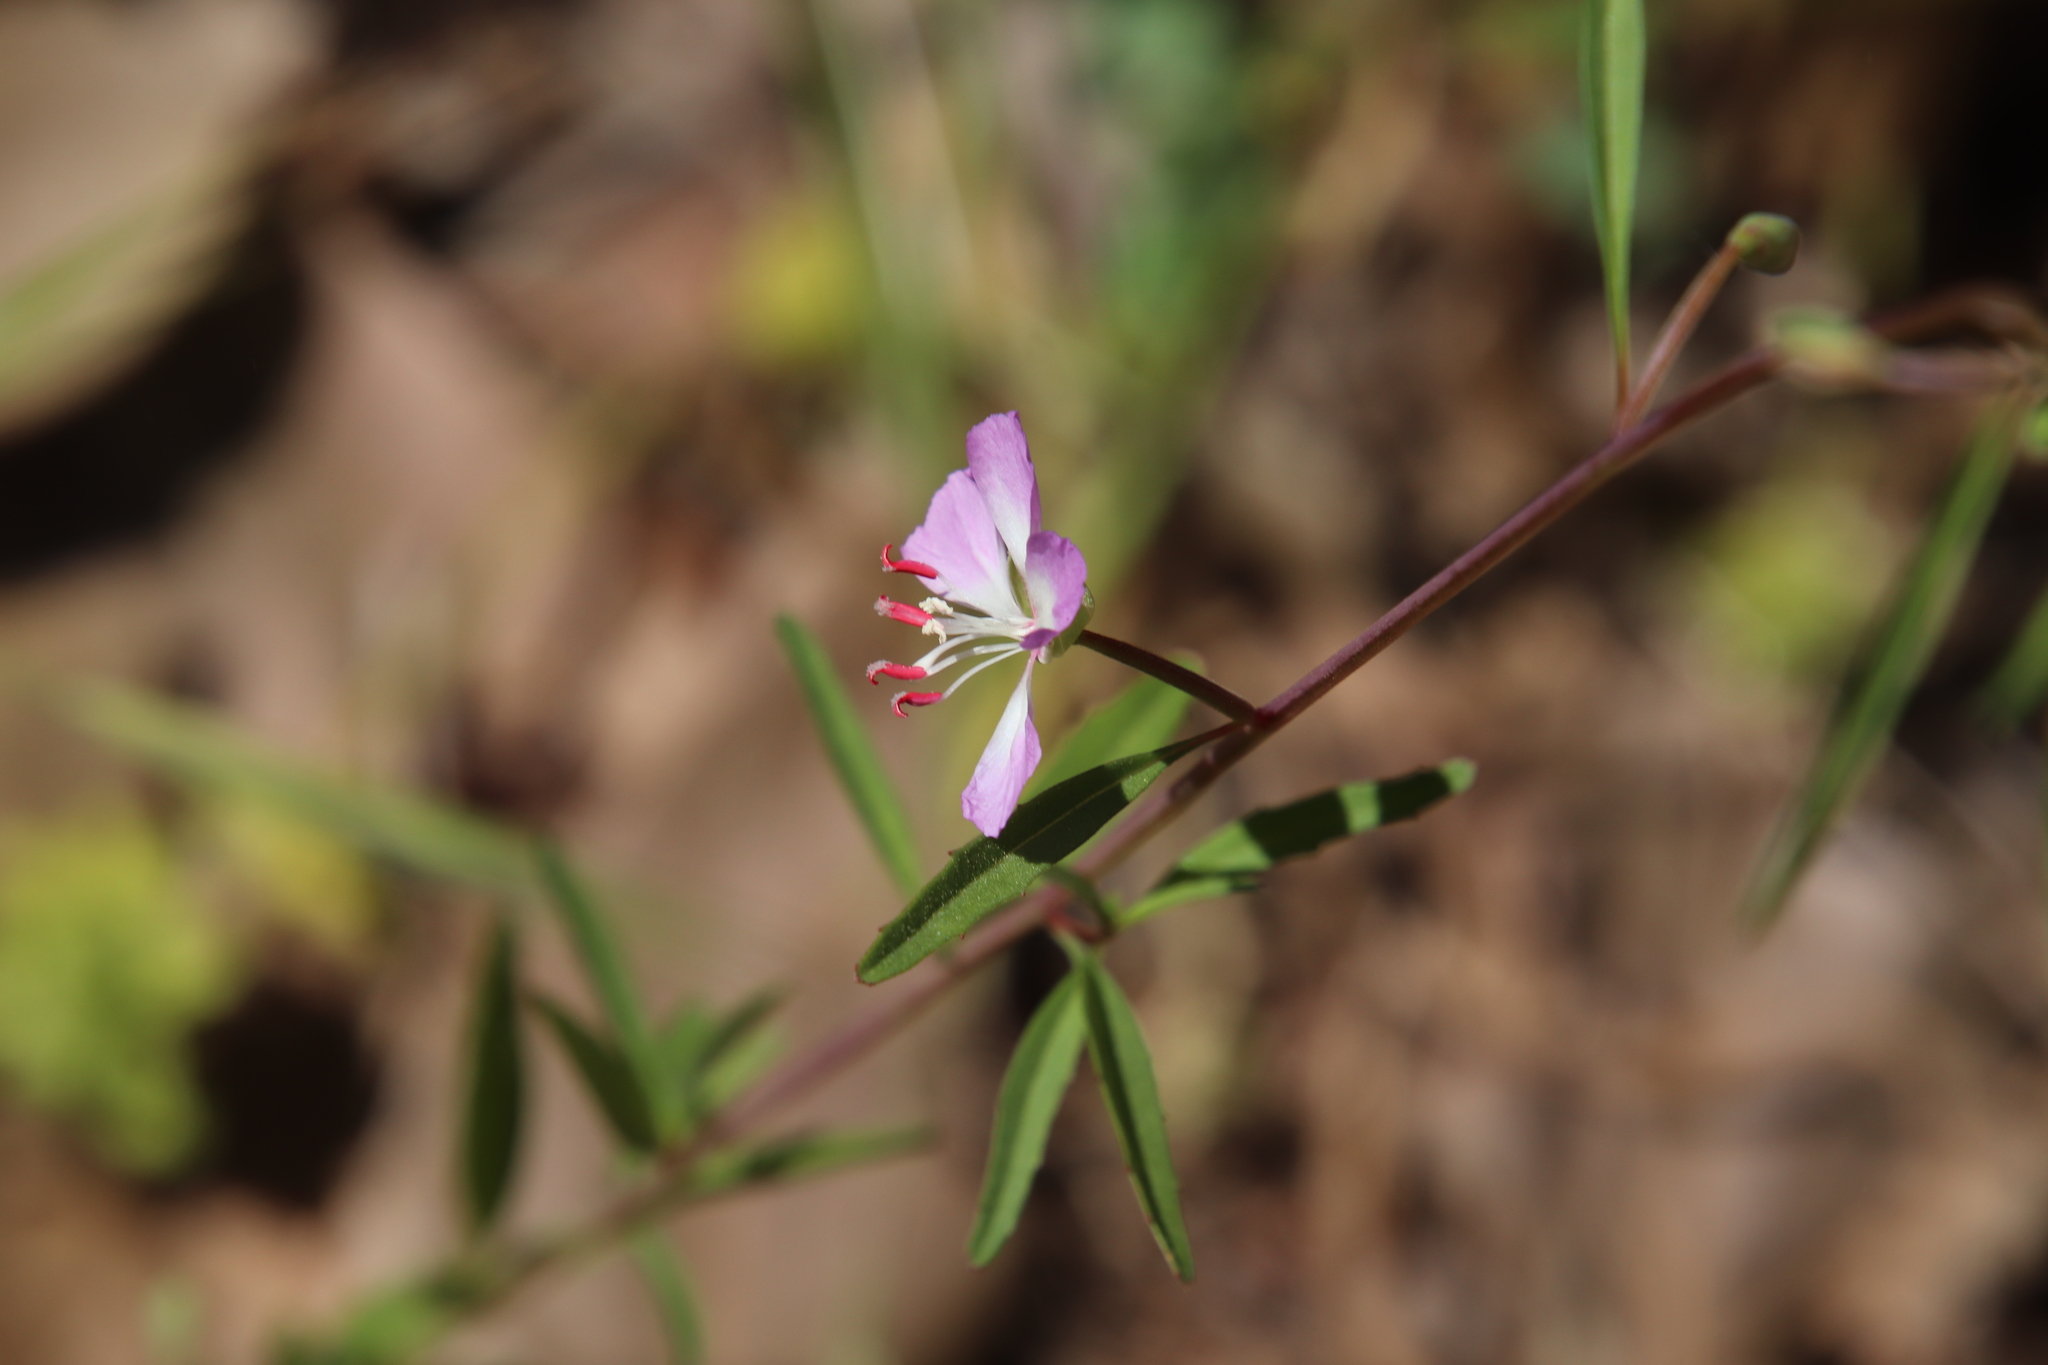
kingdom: Plantae
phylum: Tracheophyta
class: Magnoliopsida
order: Myrtales
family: Onagraceae
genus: Clarkia
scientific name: Clarkia delicata
